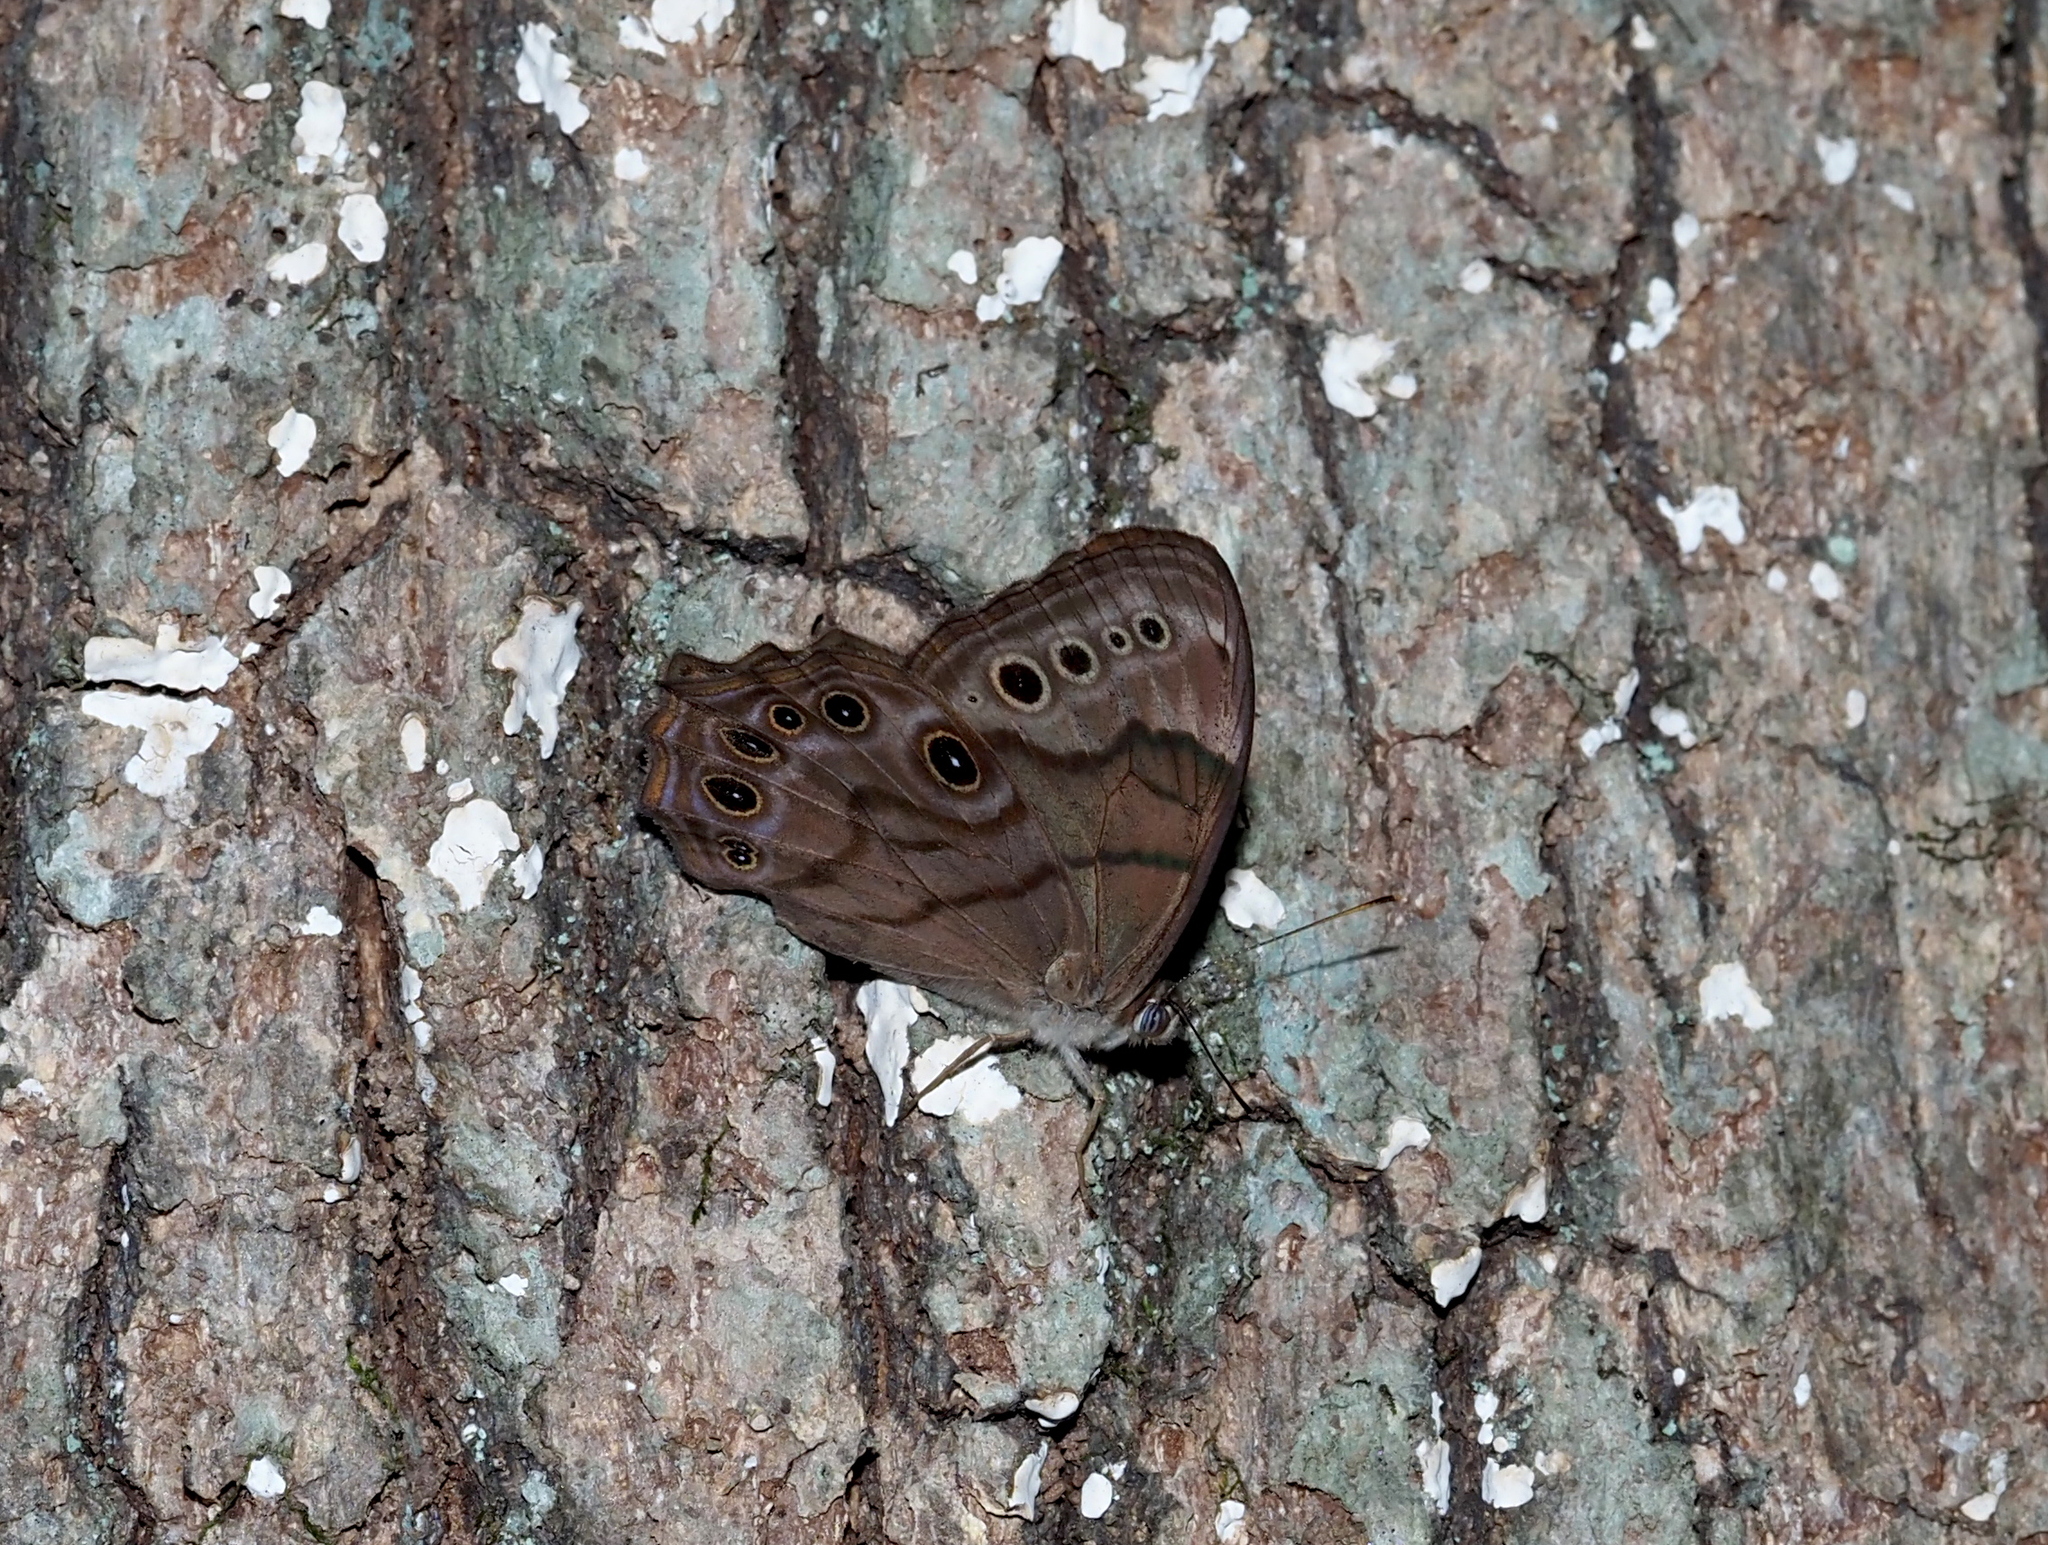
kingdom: Animalia
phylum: Arthropoda
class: Insecta
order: Lepidoptera
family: Nymphalidae
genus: Lethe
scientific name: Lethe anthedon
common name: Northern pearly-eye
